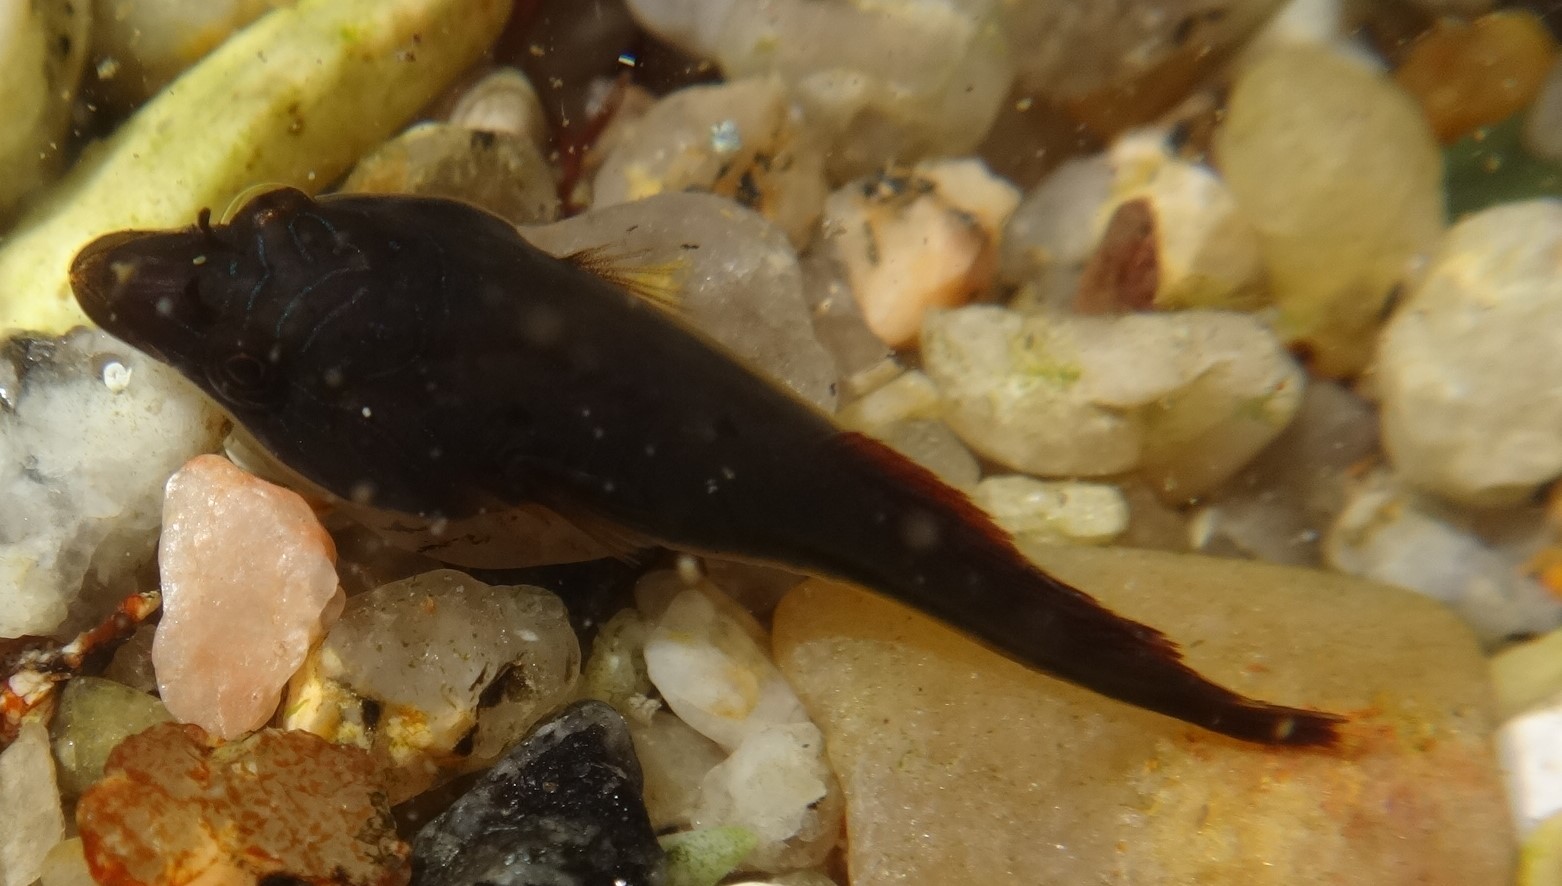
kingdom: Animalia
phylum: Chordata
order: Gobiesociformes
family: Gobiesocidae
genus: Lepadogaster
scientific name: Lepadogaster lepadogaster
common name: Cornish sucker
